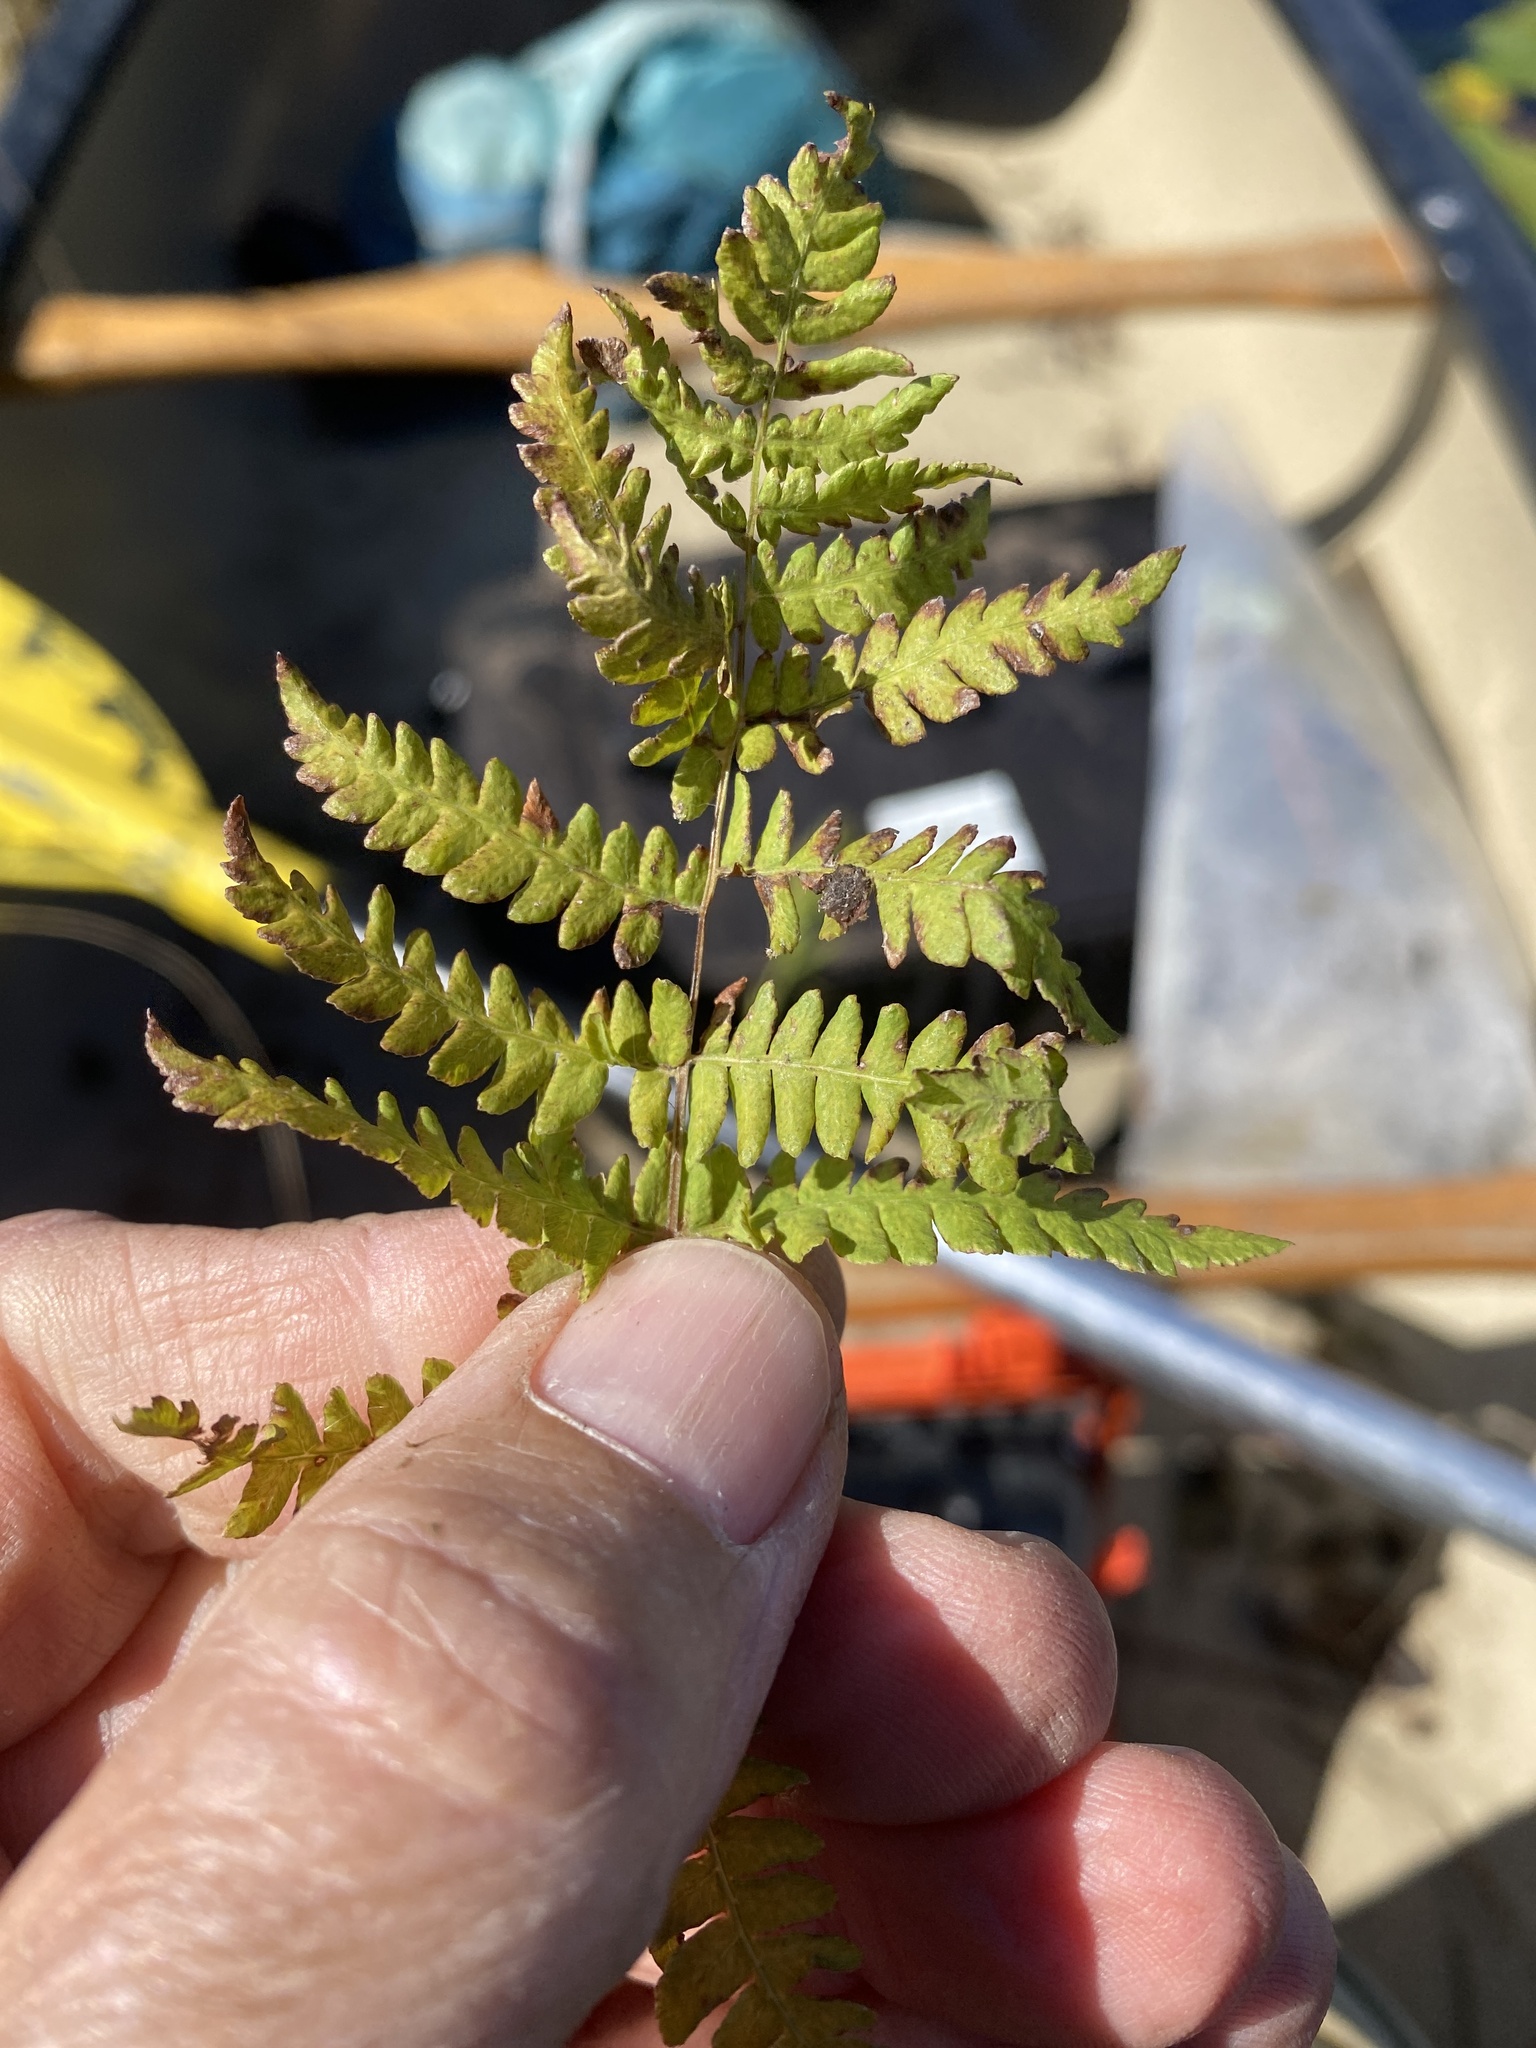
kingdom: Plantae
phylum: Tracheophyta
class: Polypodiopsida
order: Polypodiales
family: Thelypteridaceae
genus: Thelypteris
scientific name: Thelypteris palustris
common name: Marsh fern
